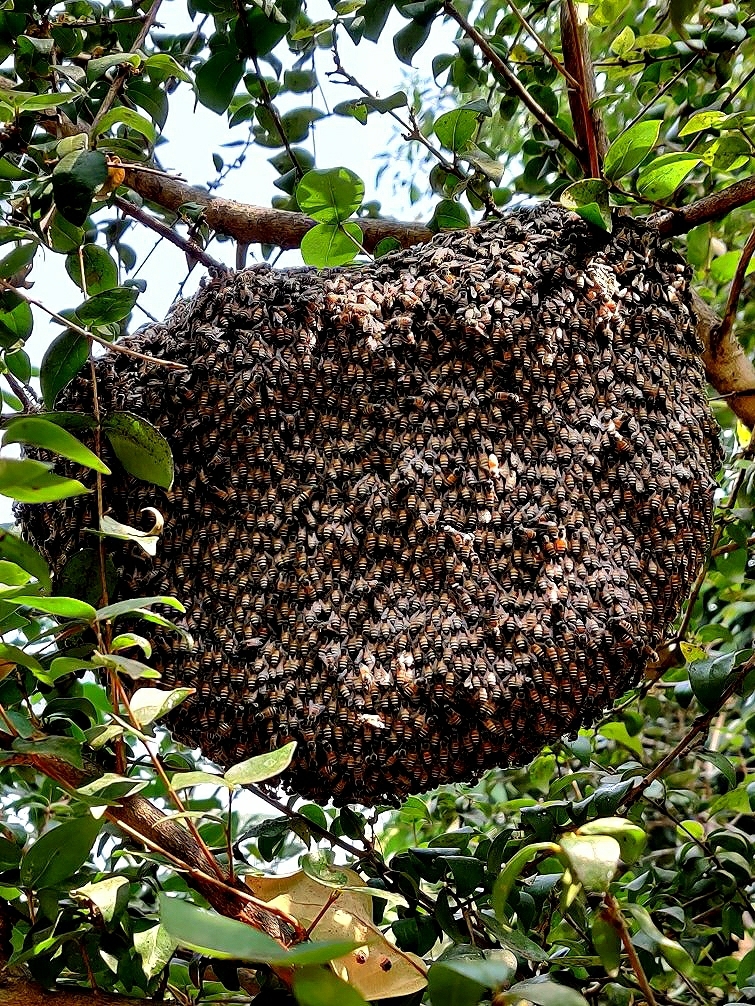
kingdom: Animalia
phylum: Arthropoda
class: Insecta
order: Hymenoptera
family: Apidae
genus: Apis
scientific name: Apis florea
